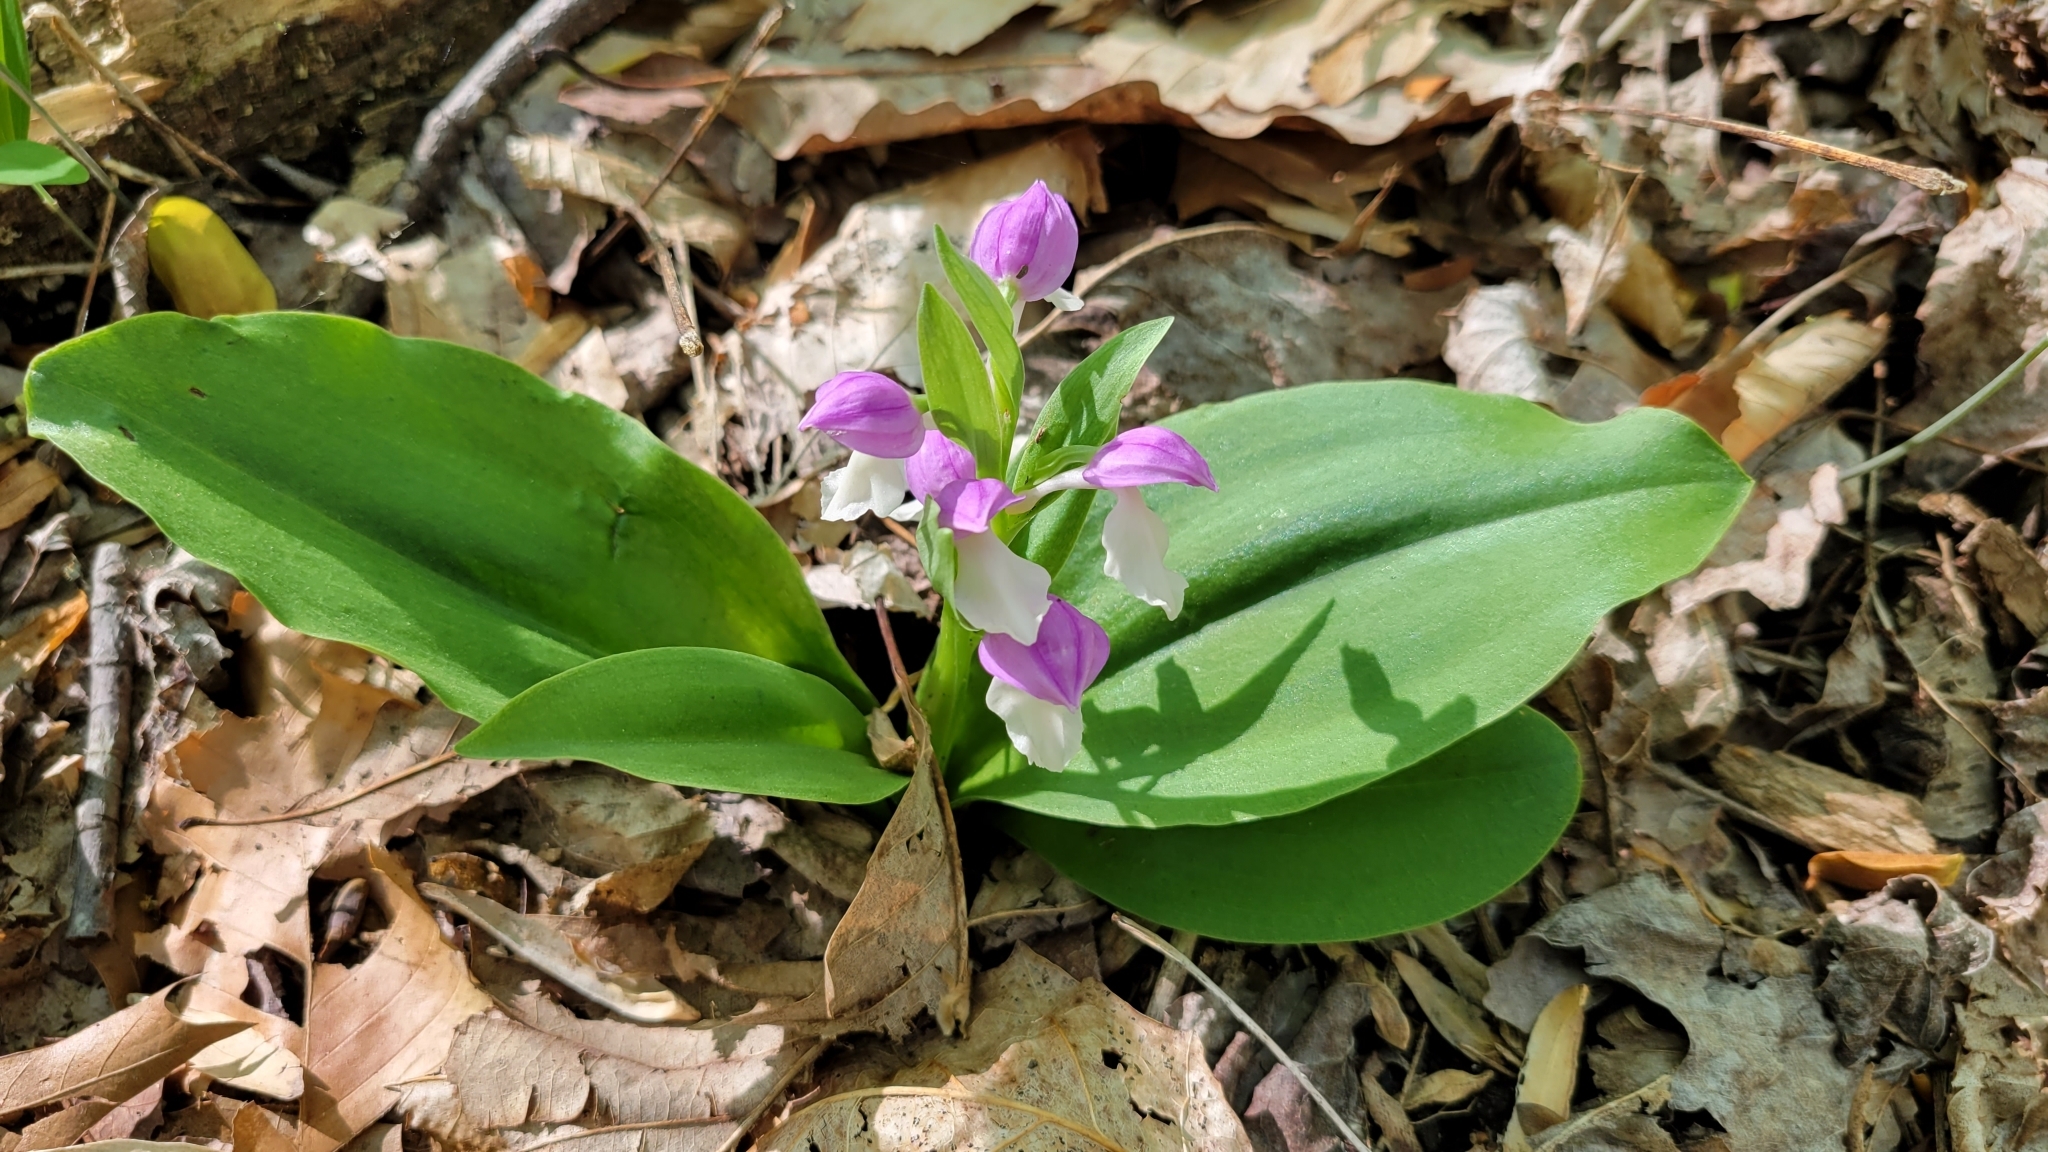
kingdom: Plantae
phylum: Tracheophyta
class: Liliopsida
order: Asparagales
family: Orchidaceae
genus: Galearis
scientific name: Galearis spectabilis
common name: Purple-hooded orchis
